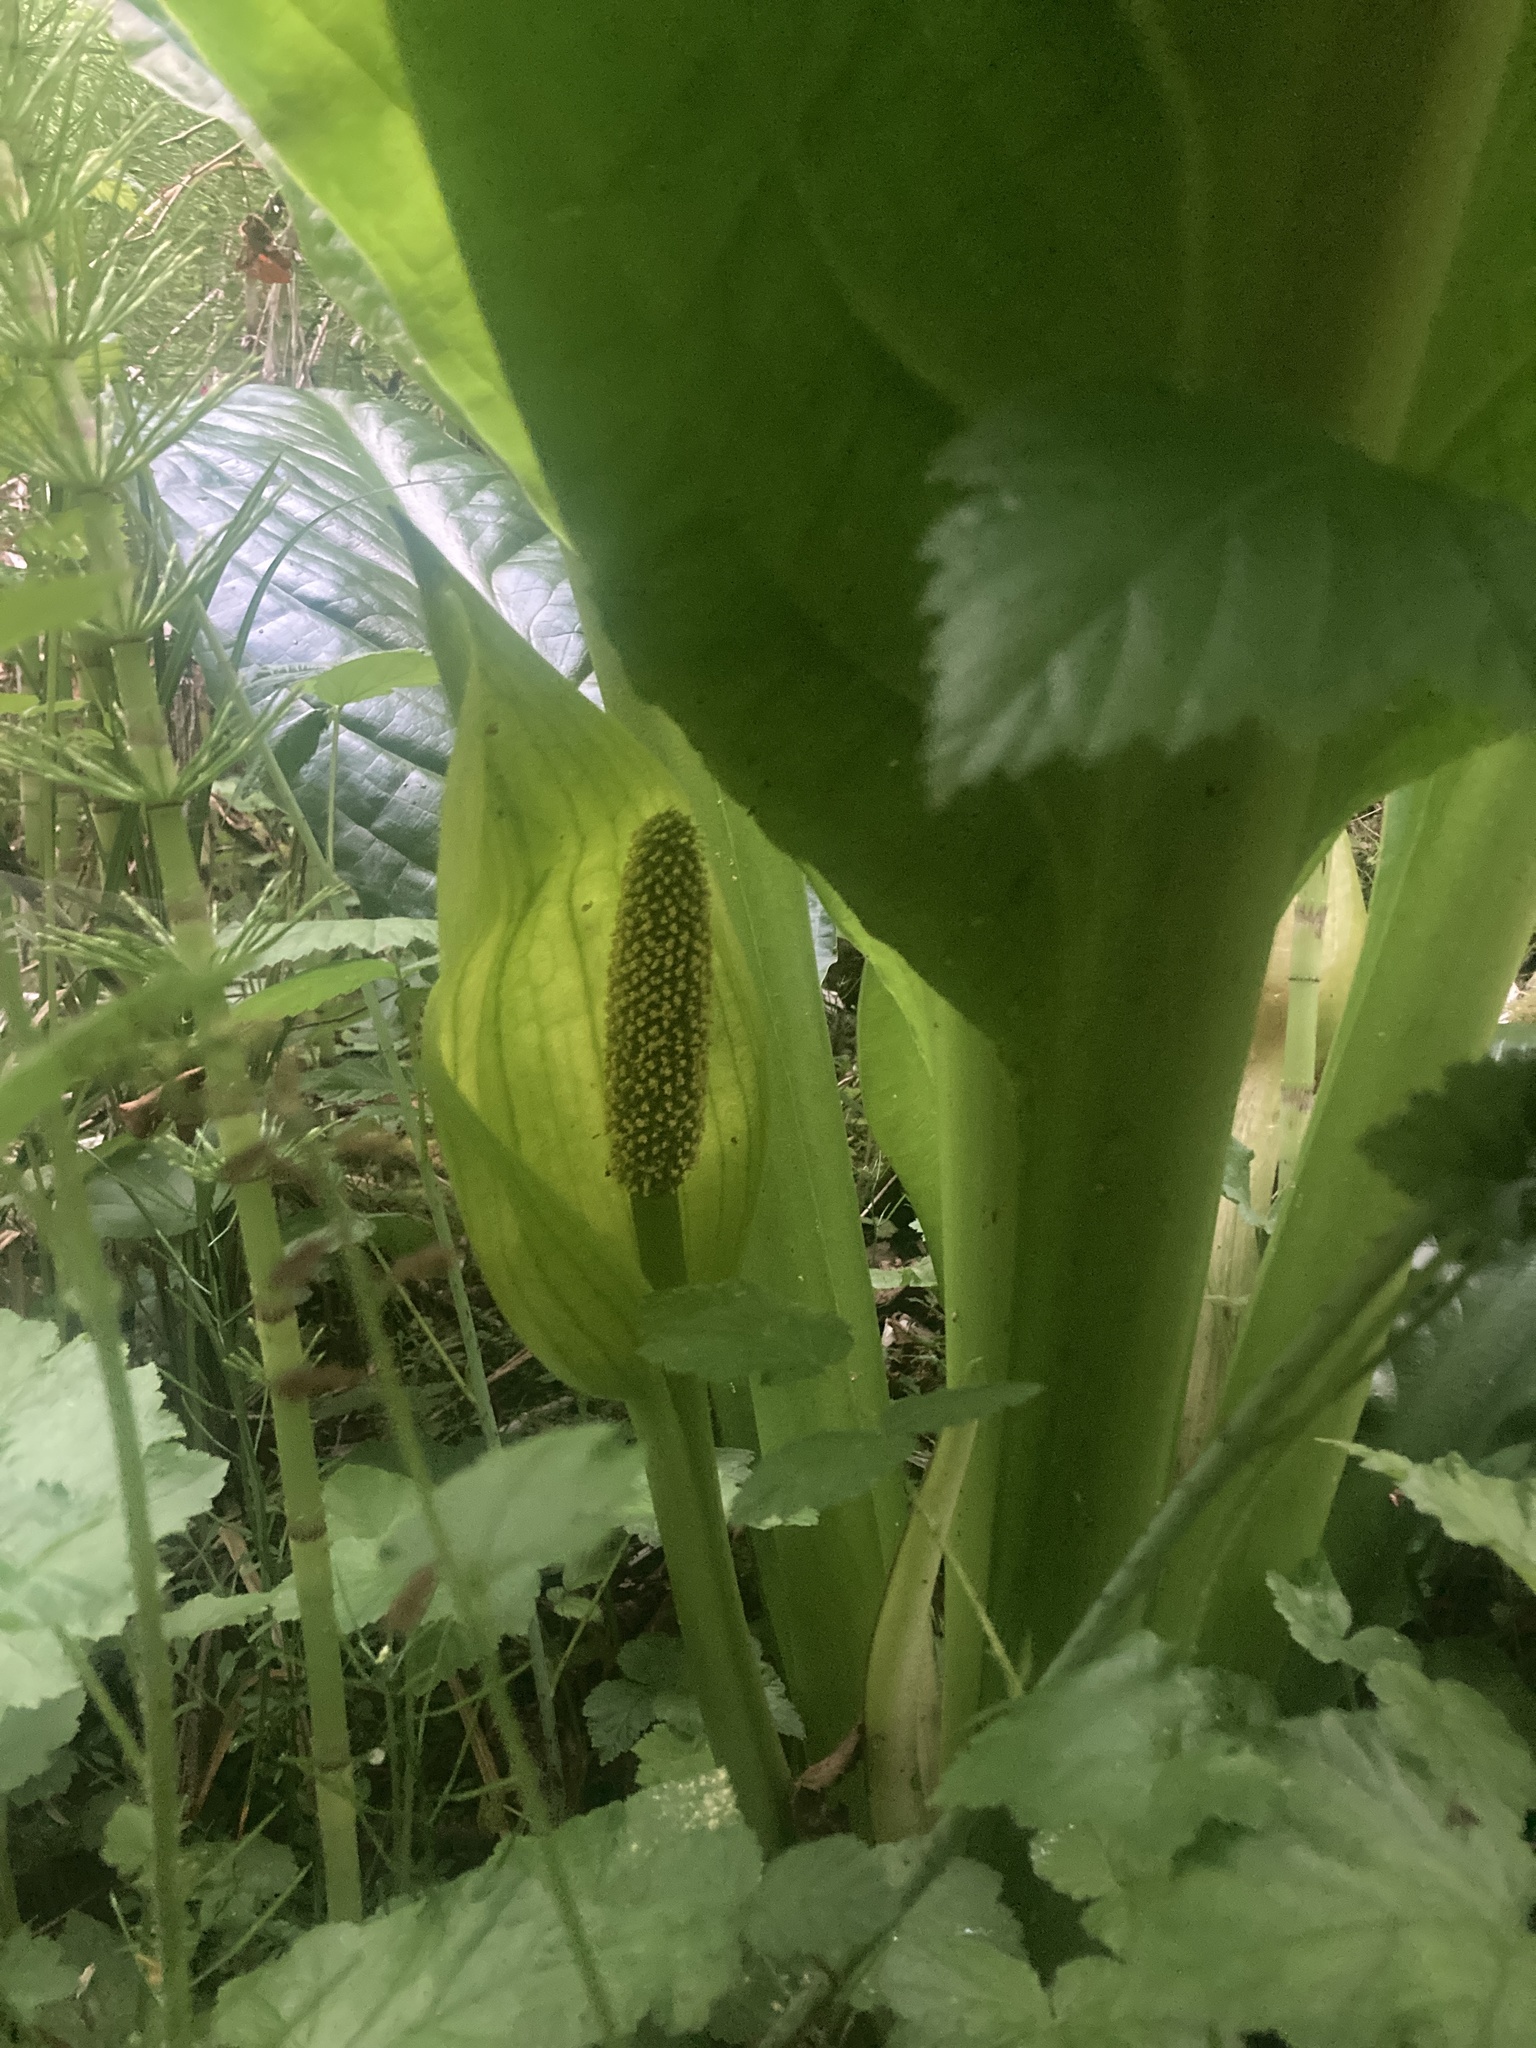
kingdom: Plantae
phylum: Tracheophyta
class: Liliopsida
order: Alismatales
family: Araceae
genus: Lysichiton
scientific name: Lysichiton americanus
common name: American skunk cabbage
